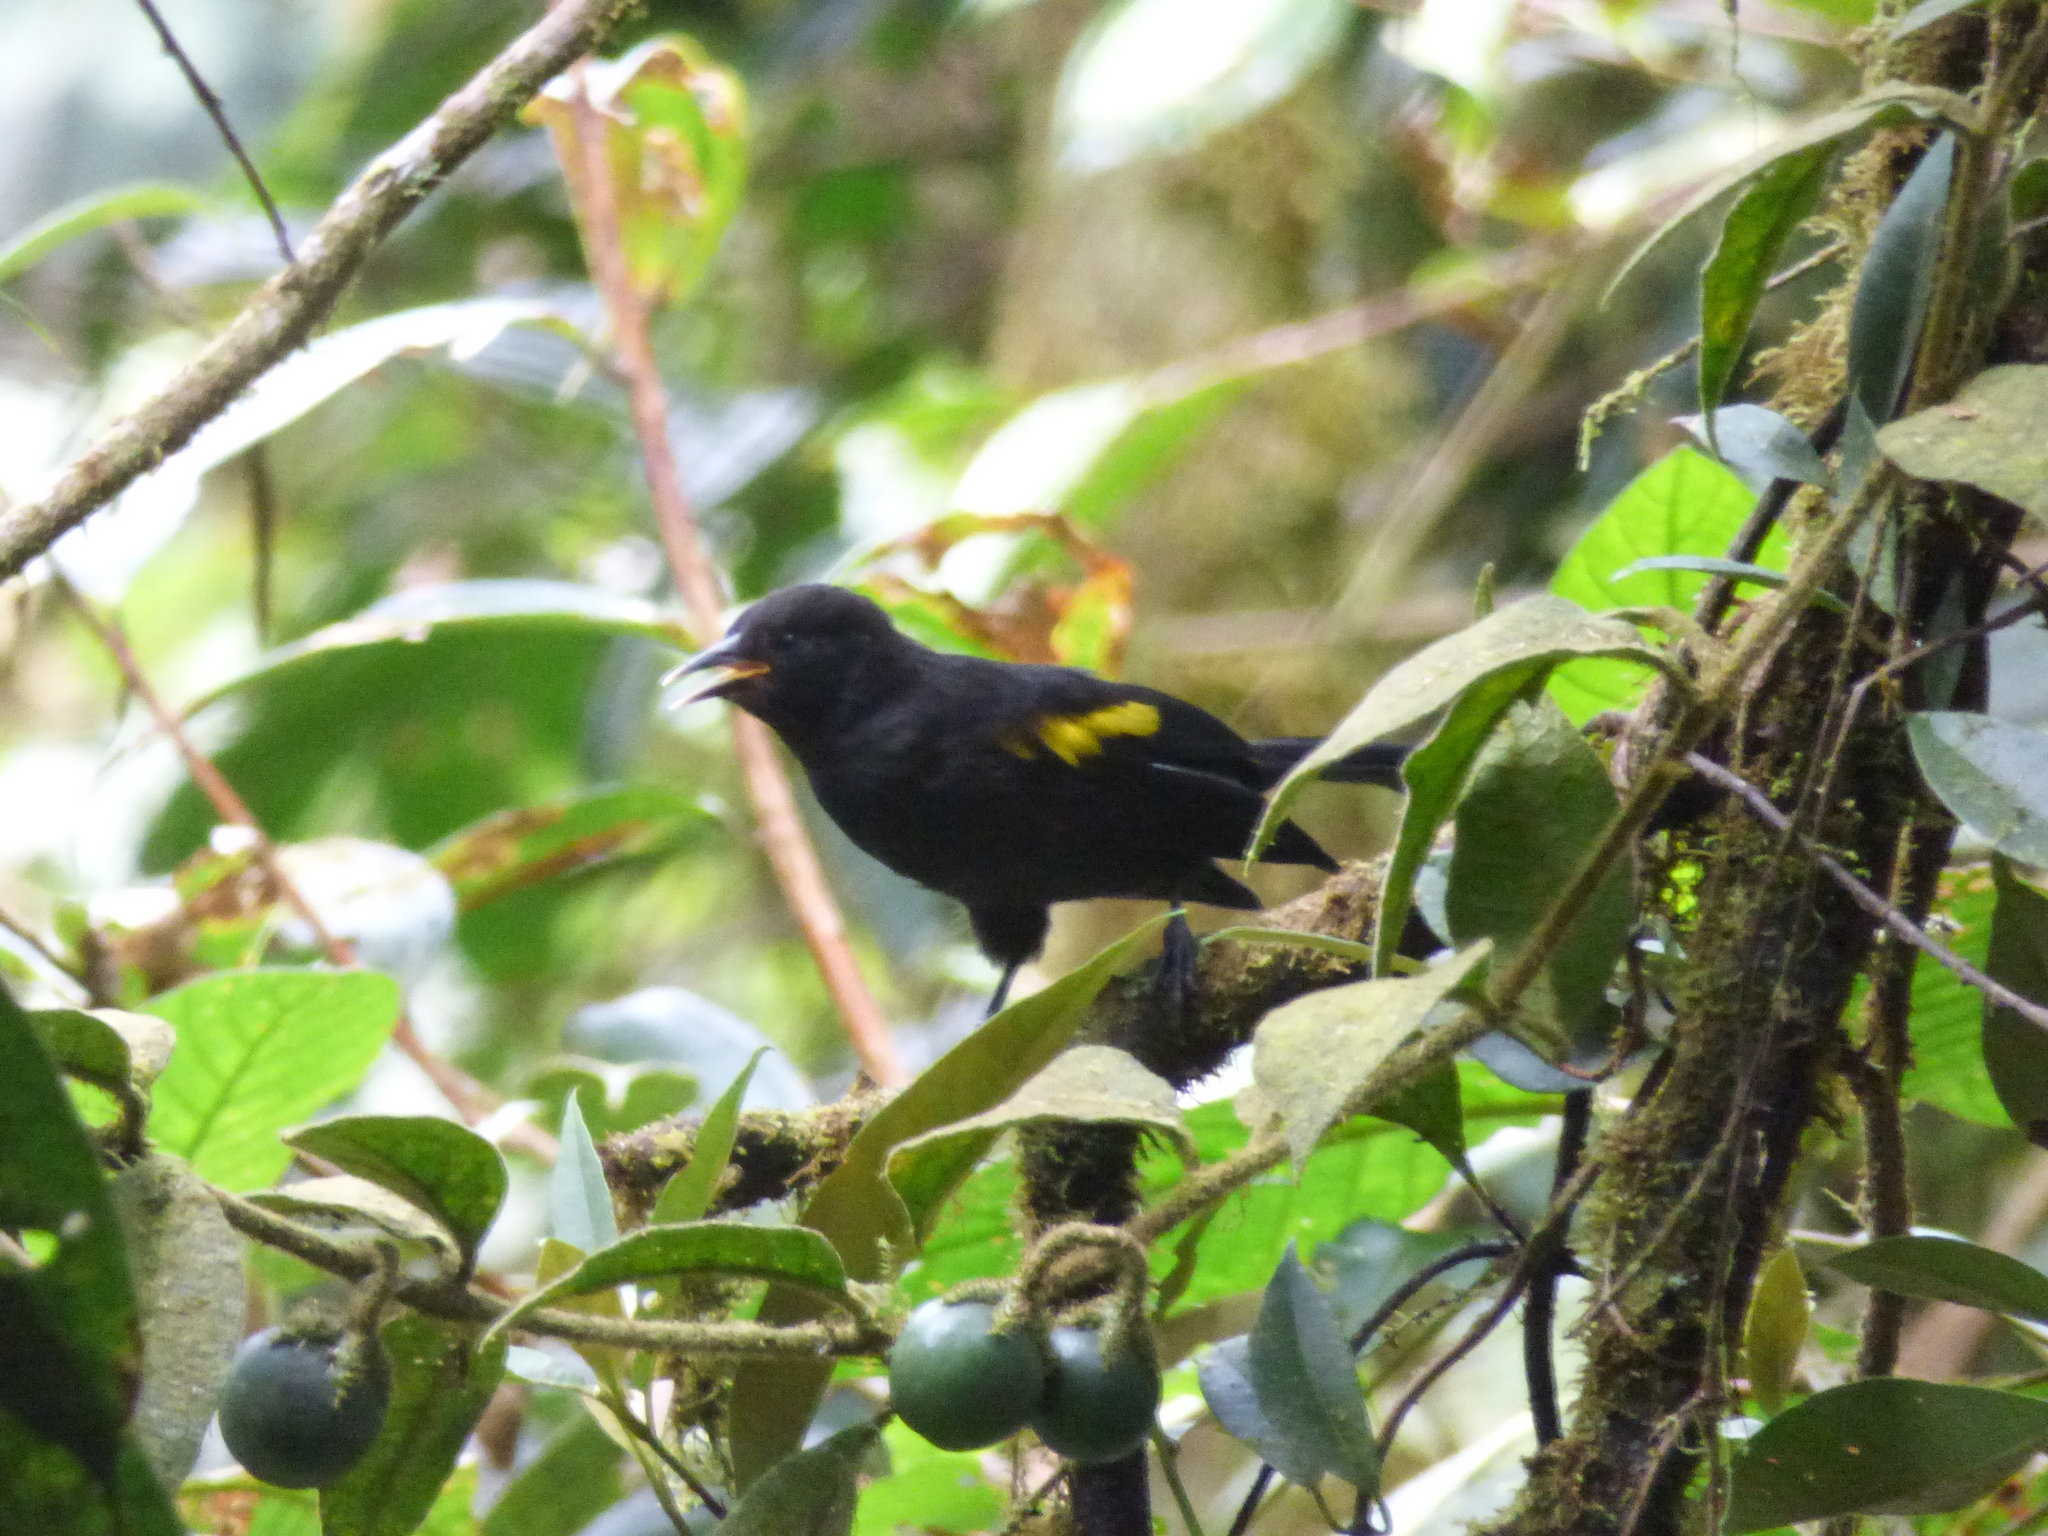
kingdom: Animalia
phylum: Chordata
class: Aves
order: Passeriformes
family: Icteridae
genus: Cacicus
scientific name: Cacicus chrysonotus
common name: Southern mountain cacique
